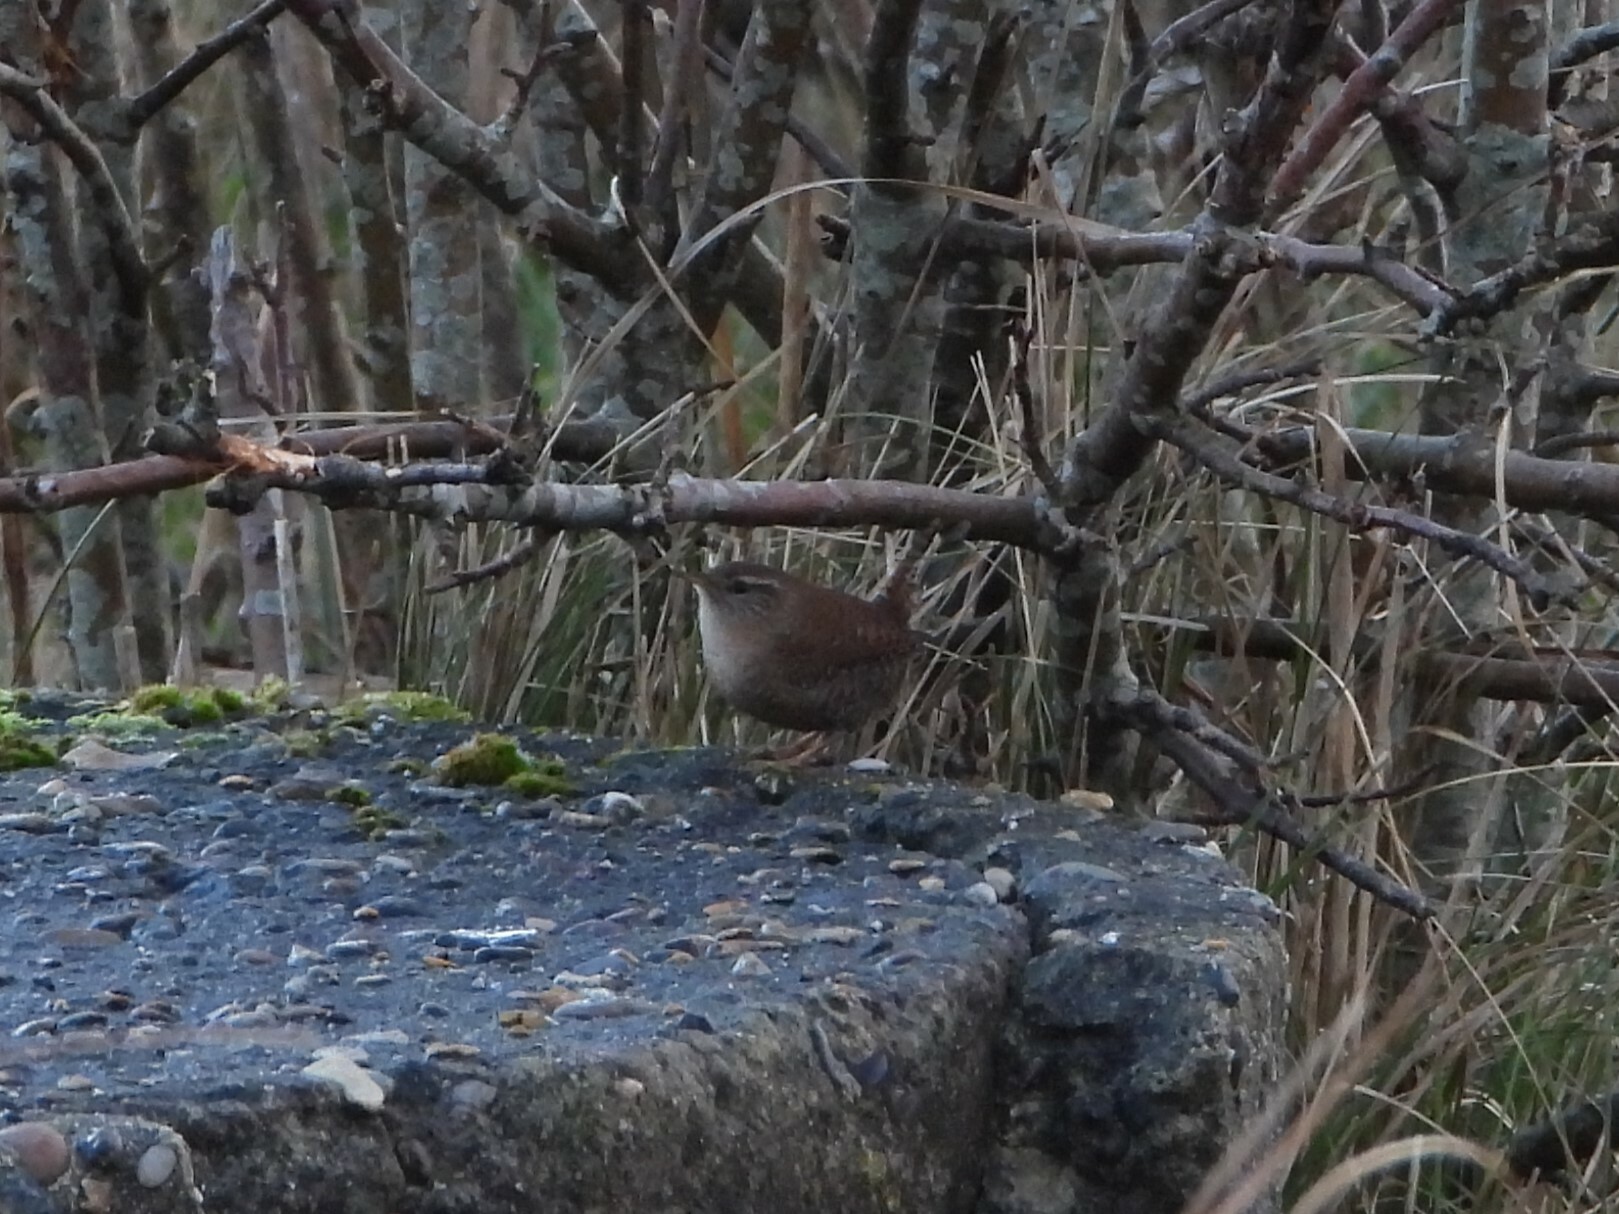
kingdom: Animalia
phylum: Chordata
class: Aves
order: Passeriformes
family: Troglodytidae
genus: Troglodytes
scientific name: Troglodytes troglodytes
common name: Eurasian wren
